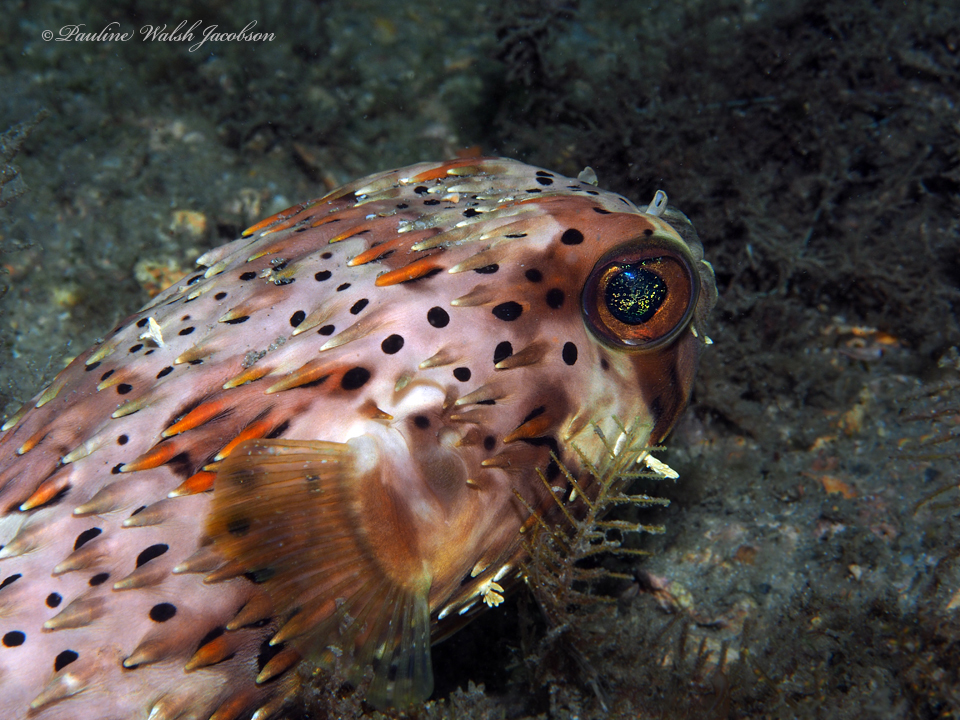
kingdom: Animalia
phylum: Chordata
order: Tetraodontiformes
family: Diodontidae
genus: Diodon
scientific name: Diodon holocanthus
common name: Balloonfish
